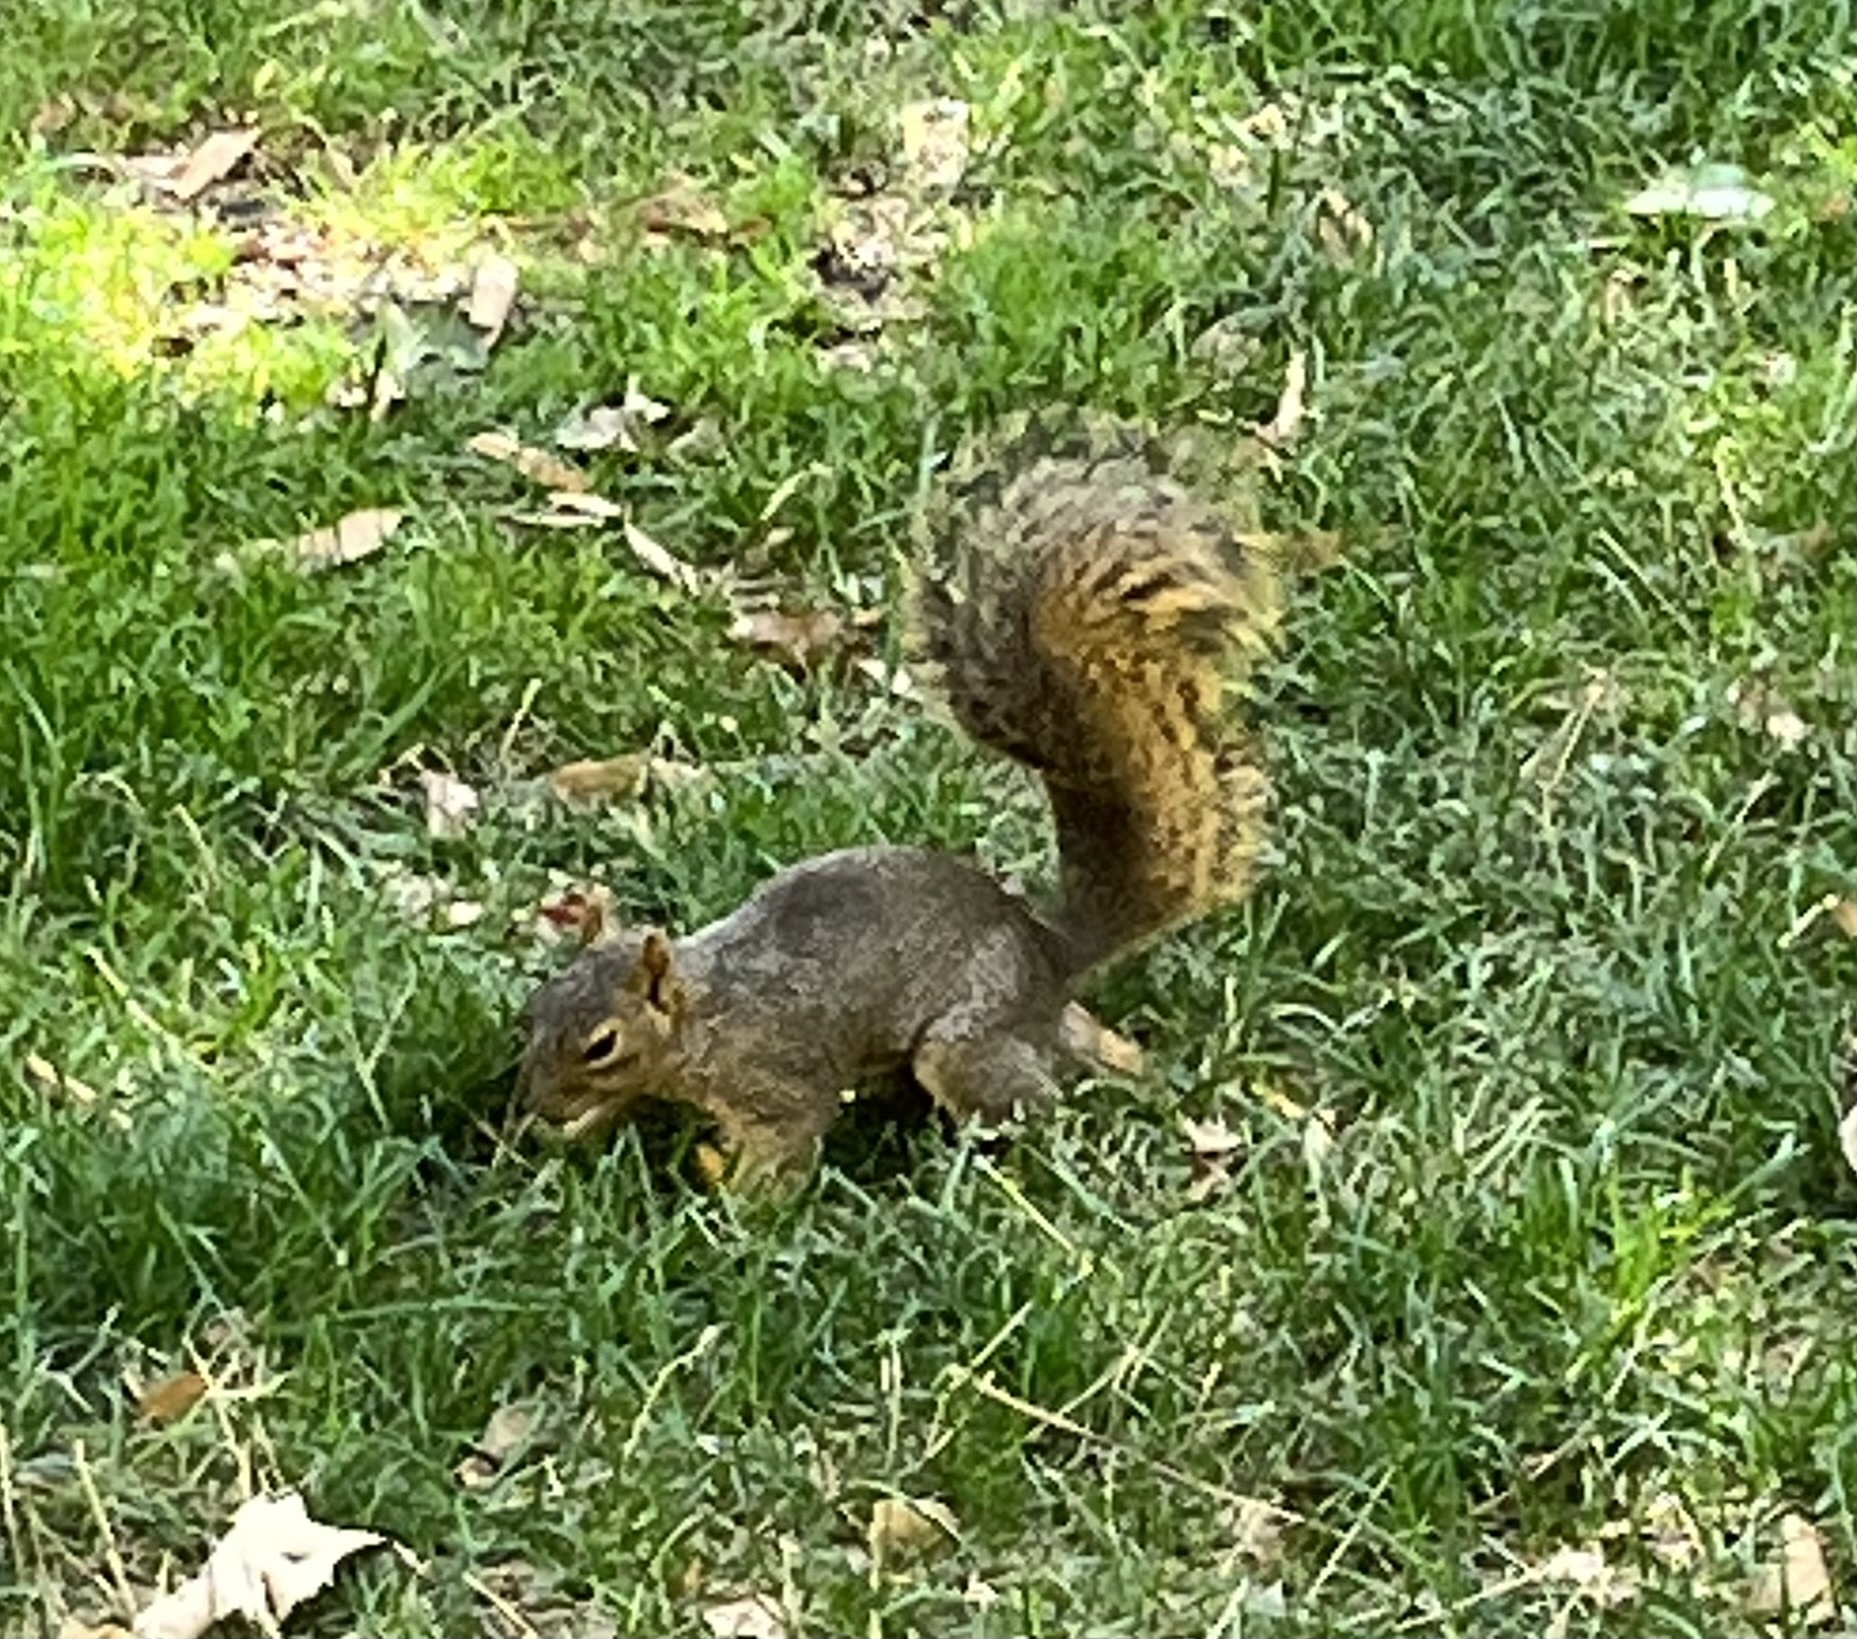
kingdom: Animalia
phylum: Chordata
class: Mammalia
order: Rodentia
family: Sciuridae
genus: Sciurus
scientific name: Sciurus niger
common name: Fox squirrel
